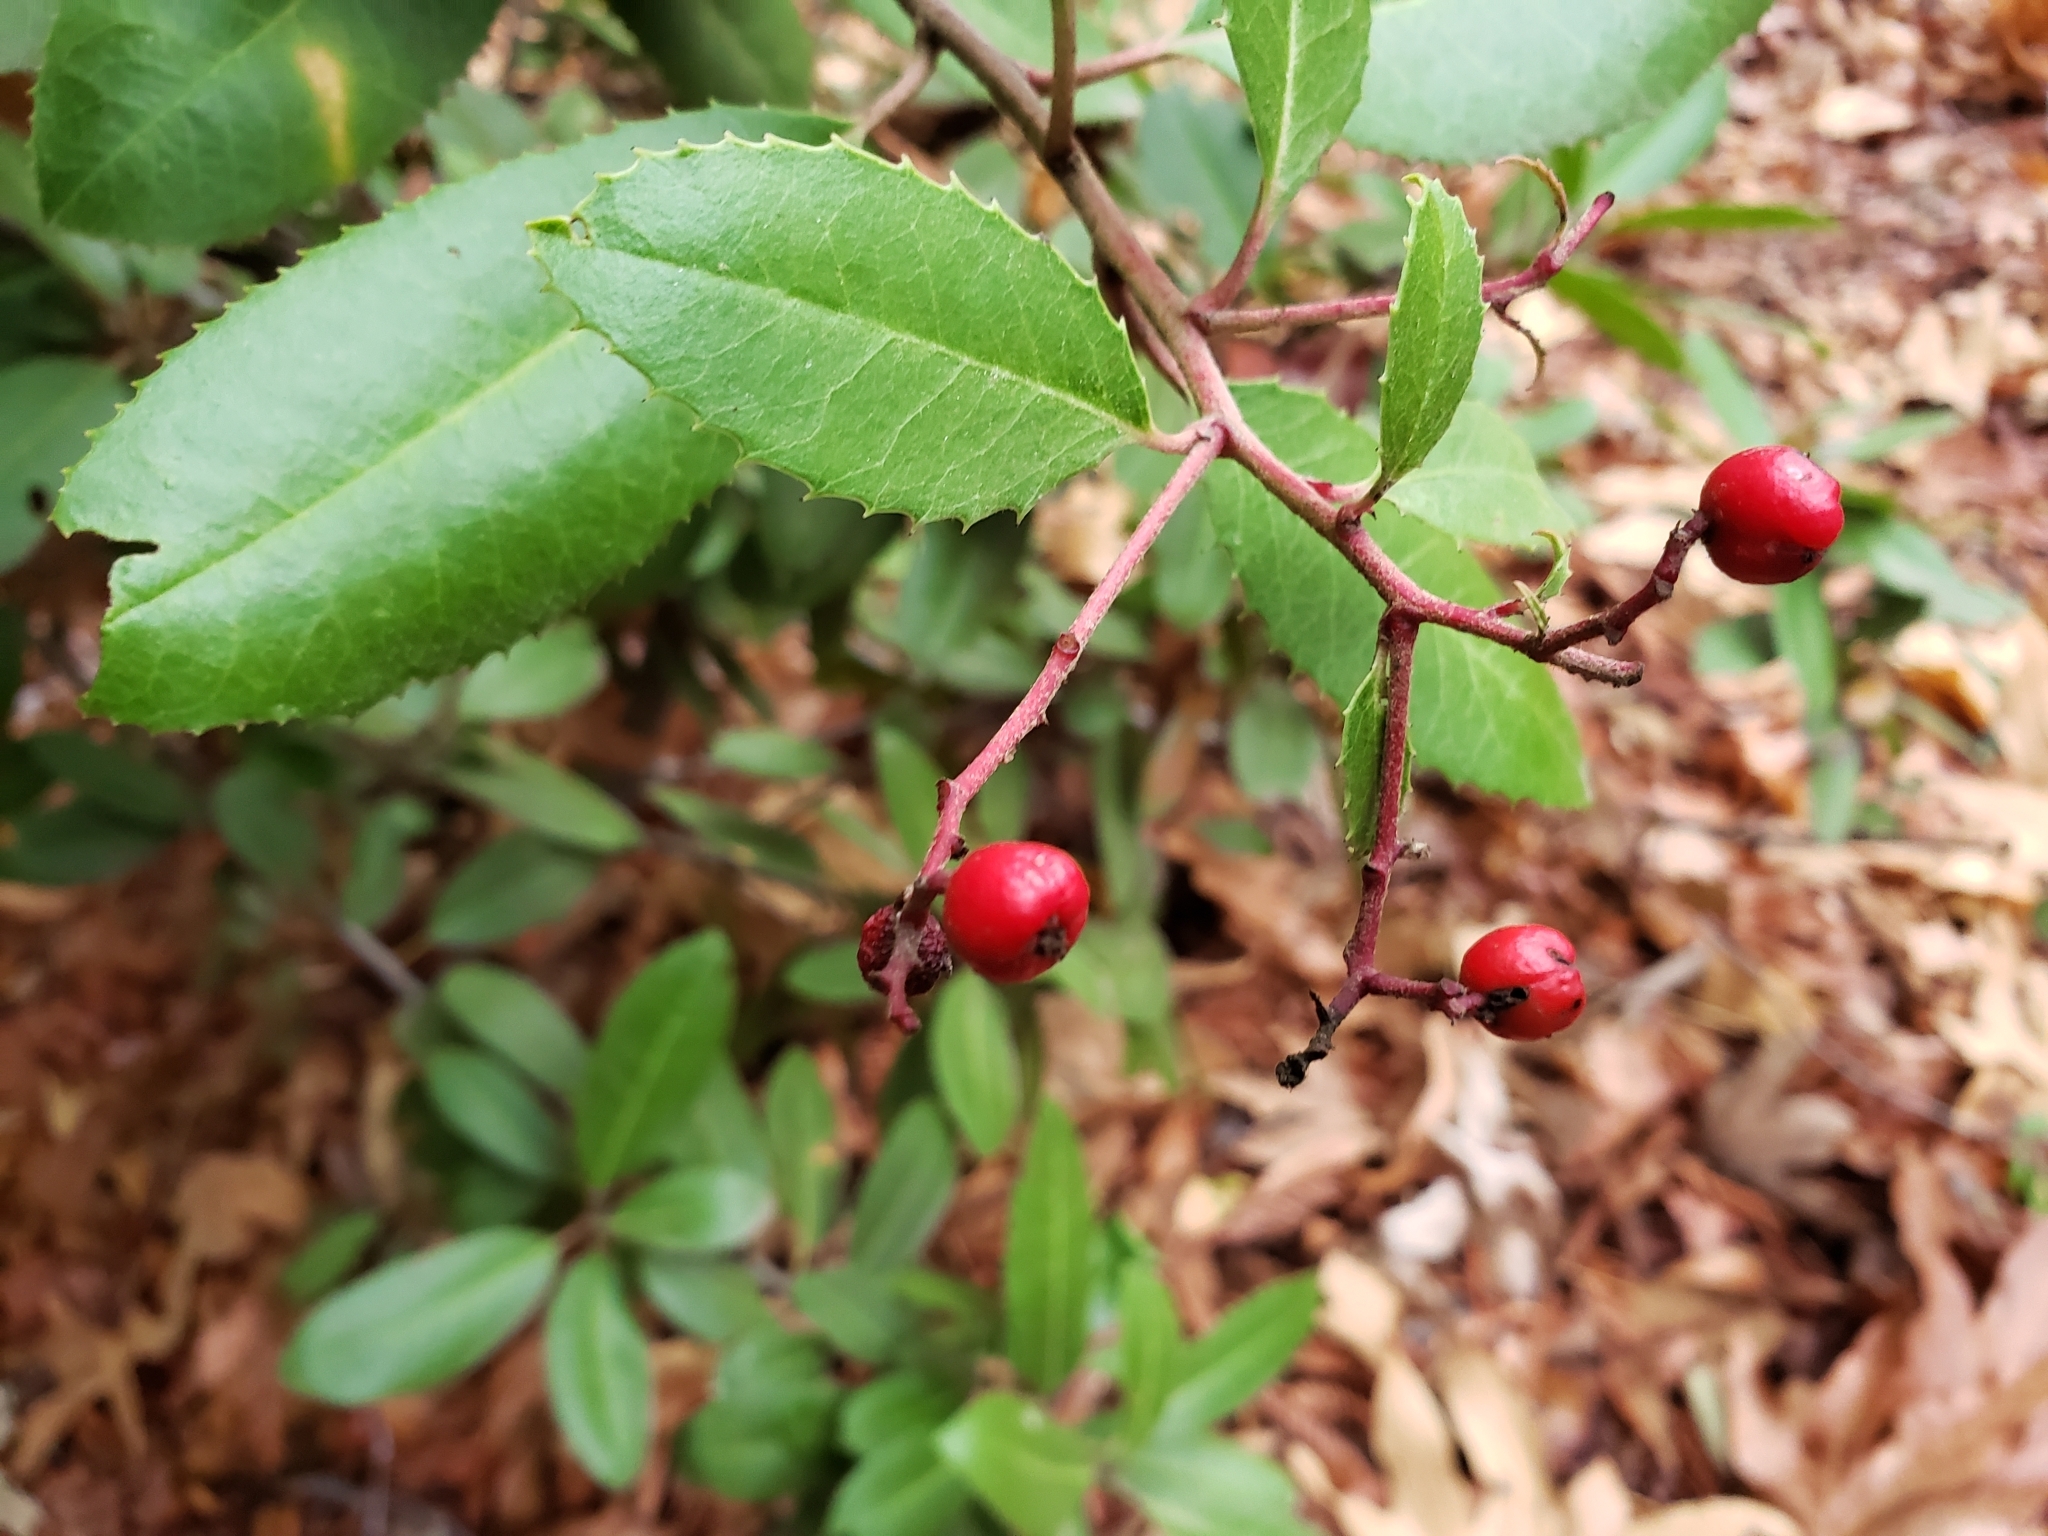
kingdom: Plantae
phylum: Tracheophyta
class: Magnoliopsida
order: Rosales
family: Rosaceae
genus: Heteromeles
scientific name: Heteromeles arbutifolia
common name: California-holly
